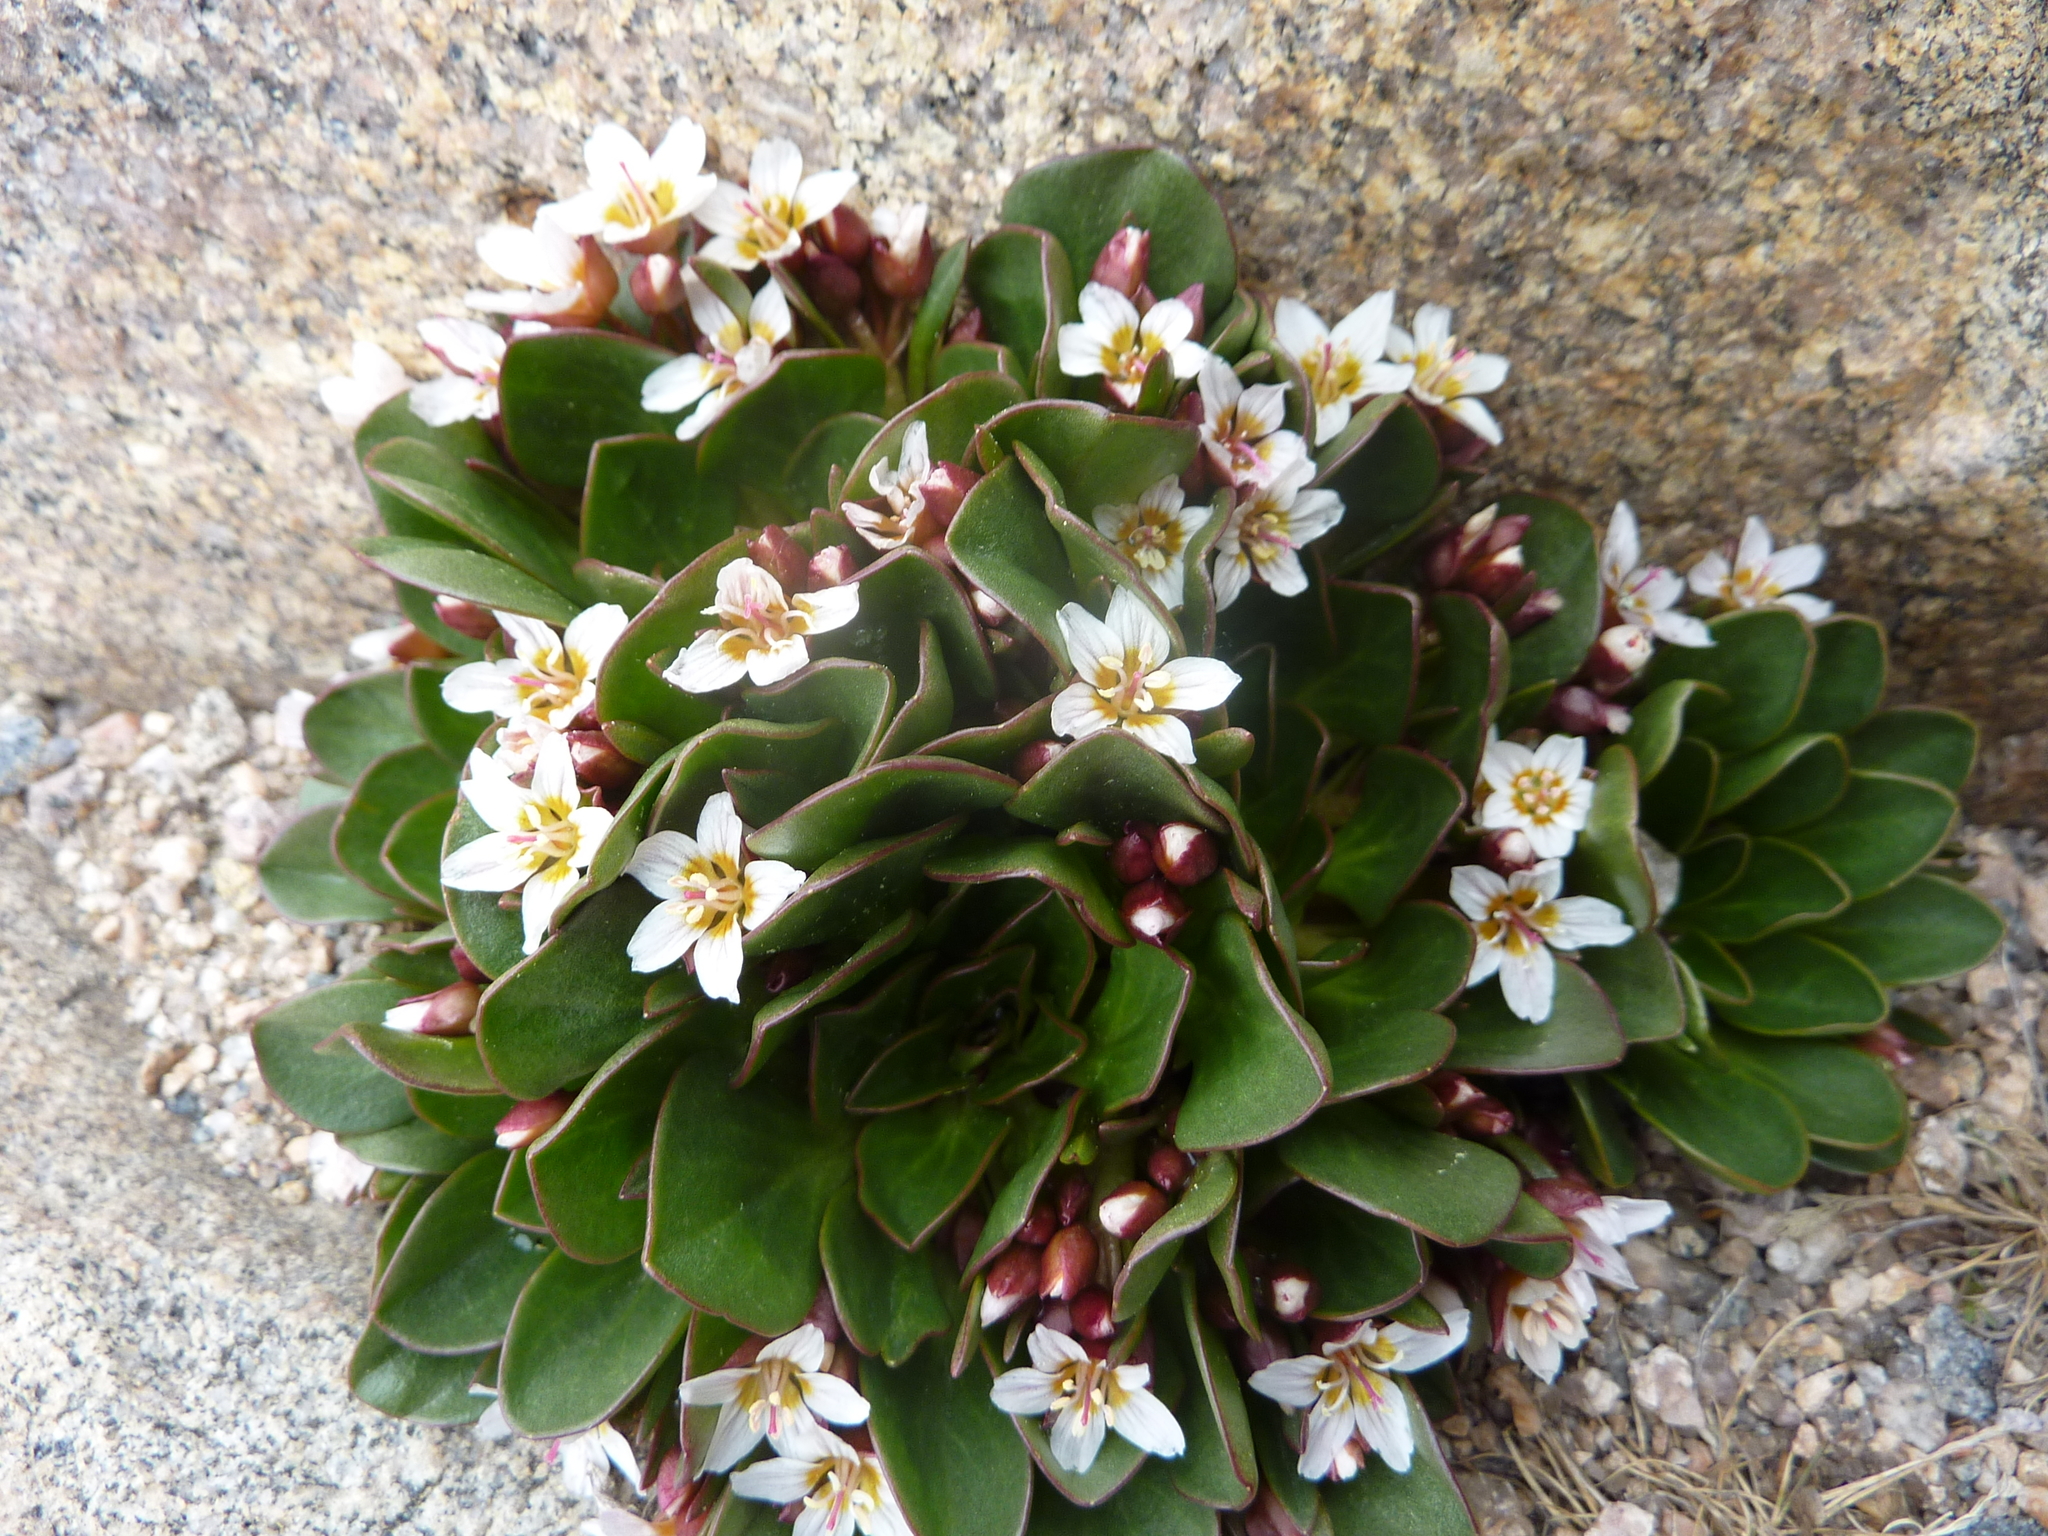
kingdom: Plantae
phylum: Tracheophyta
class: Magnoliopsida
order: Caryophyllales
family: Montiaceae
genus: Claytonia
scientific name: Claytonia megarhiza
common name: Alpine spring beauty
